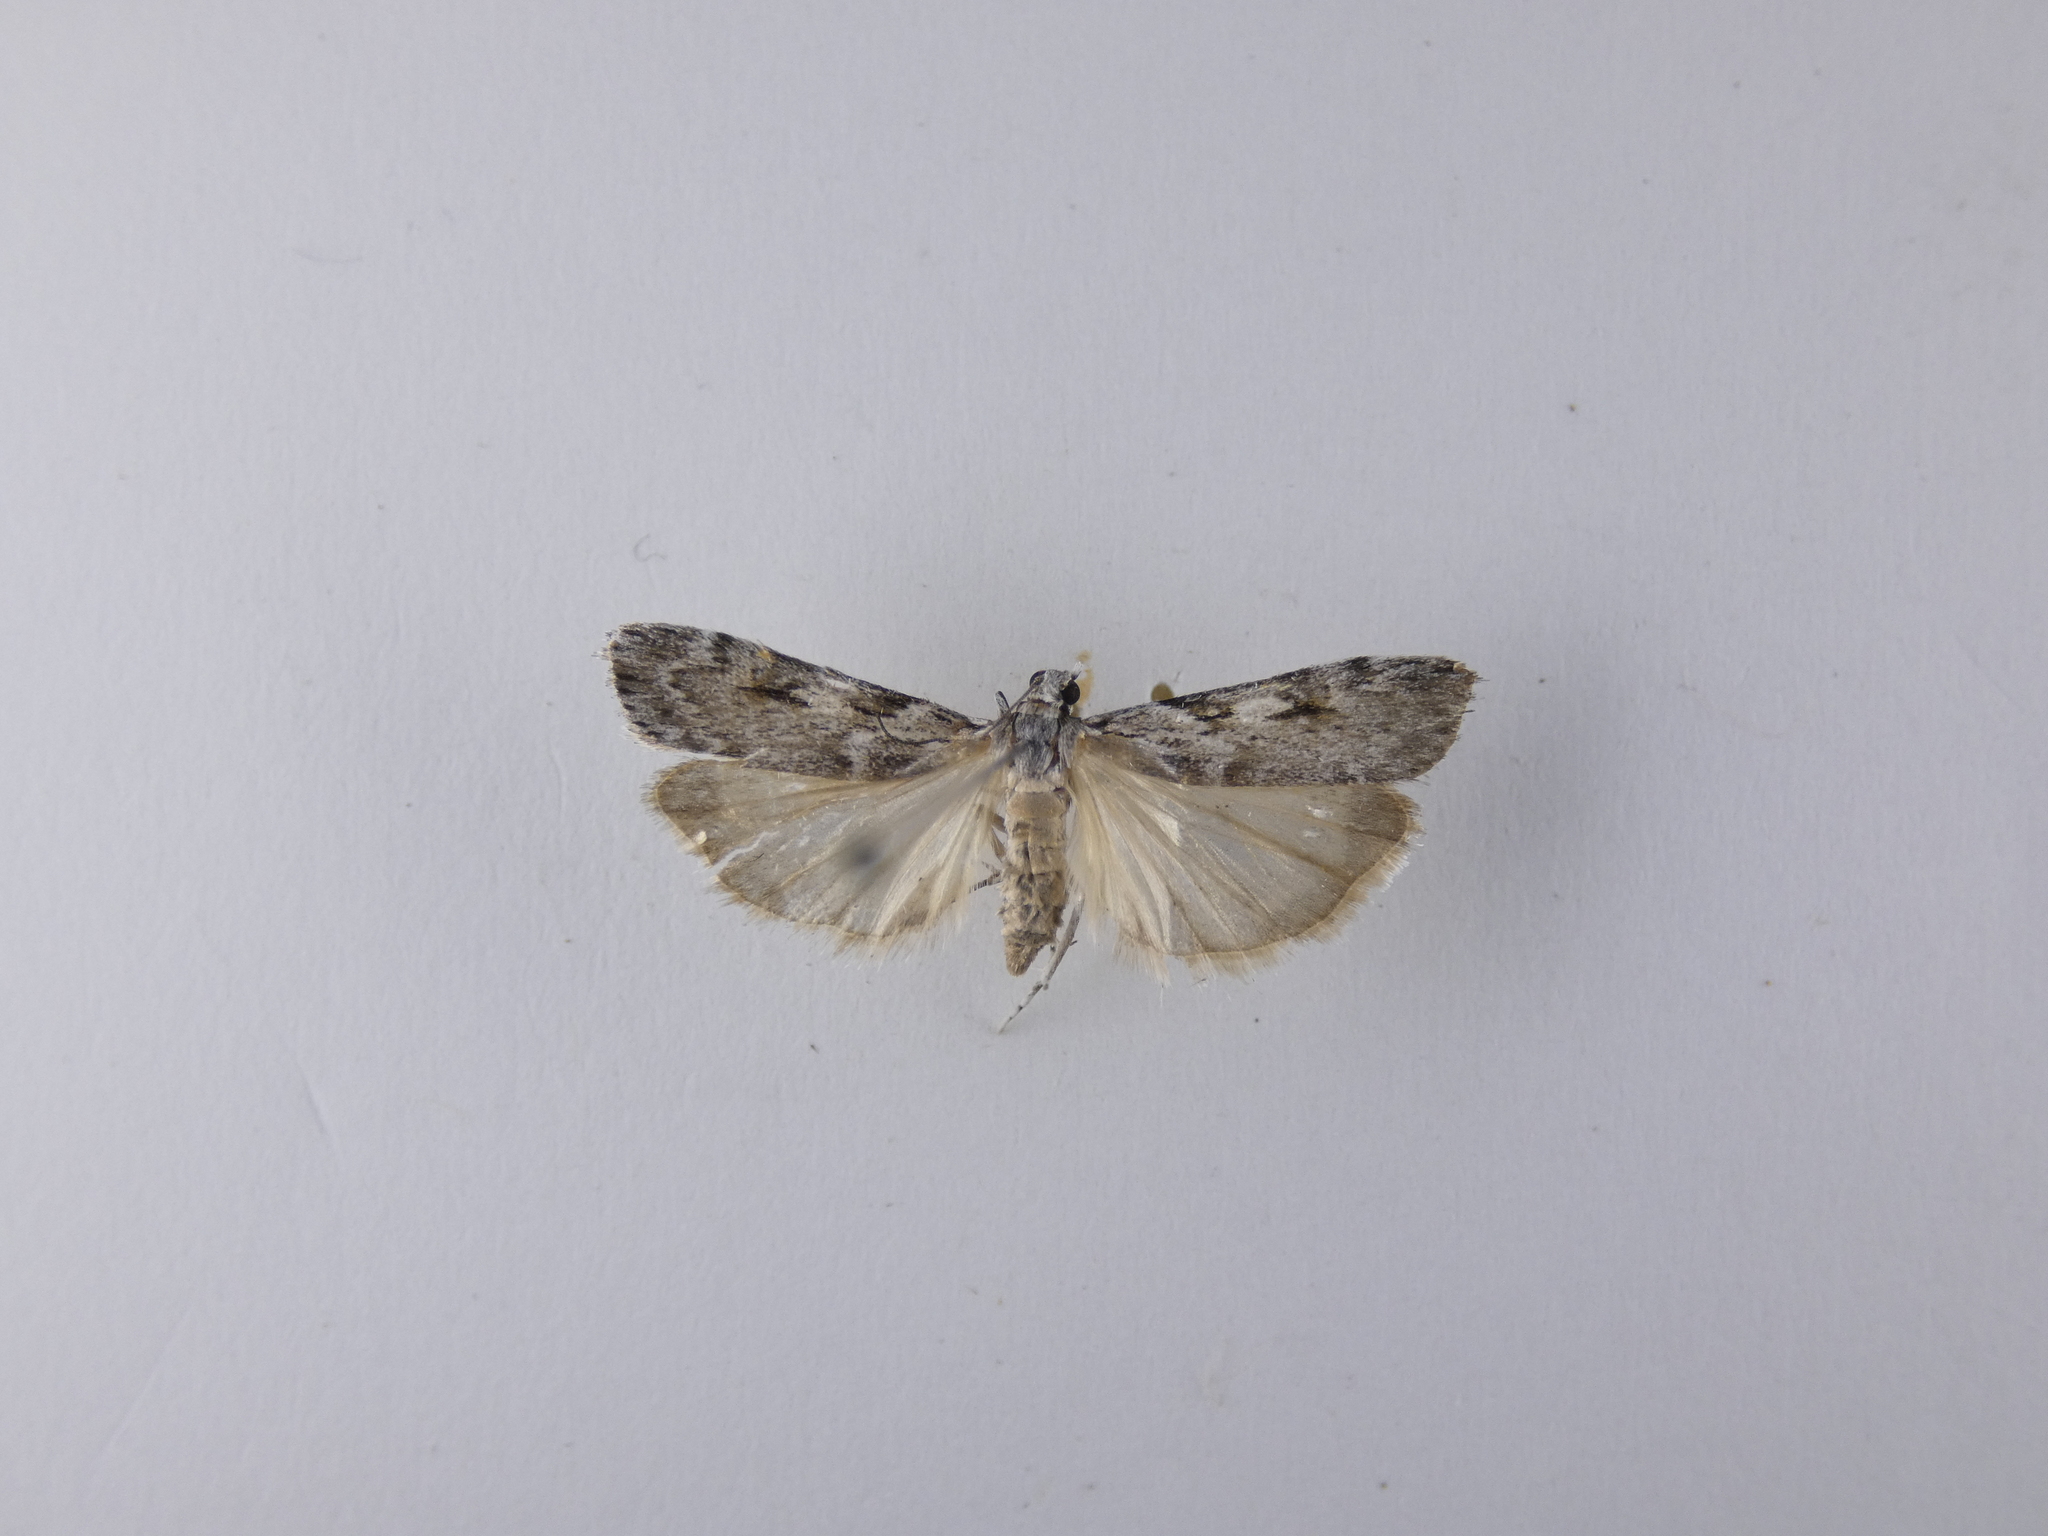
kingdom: Animalia
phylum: Arthropoda
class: Insecta
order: Lepidoptera
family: Crambidae
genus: Scoparia
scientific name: Scoparia halopis
